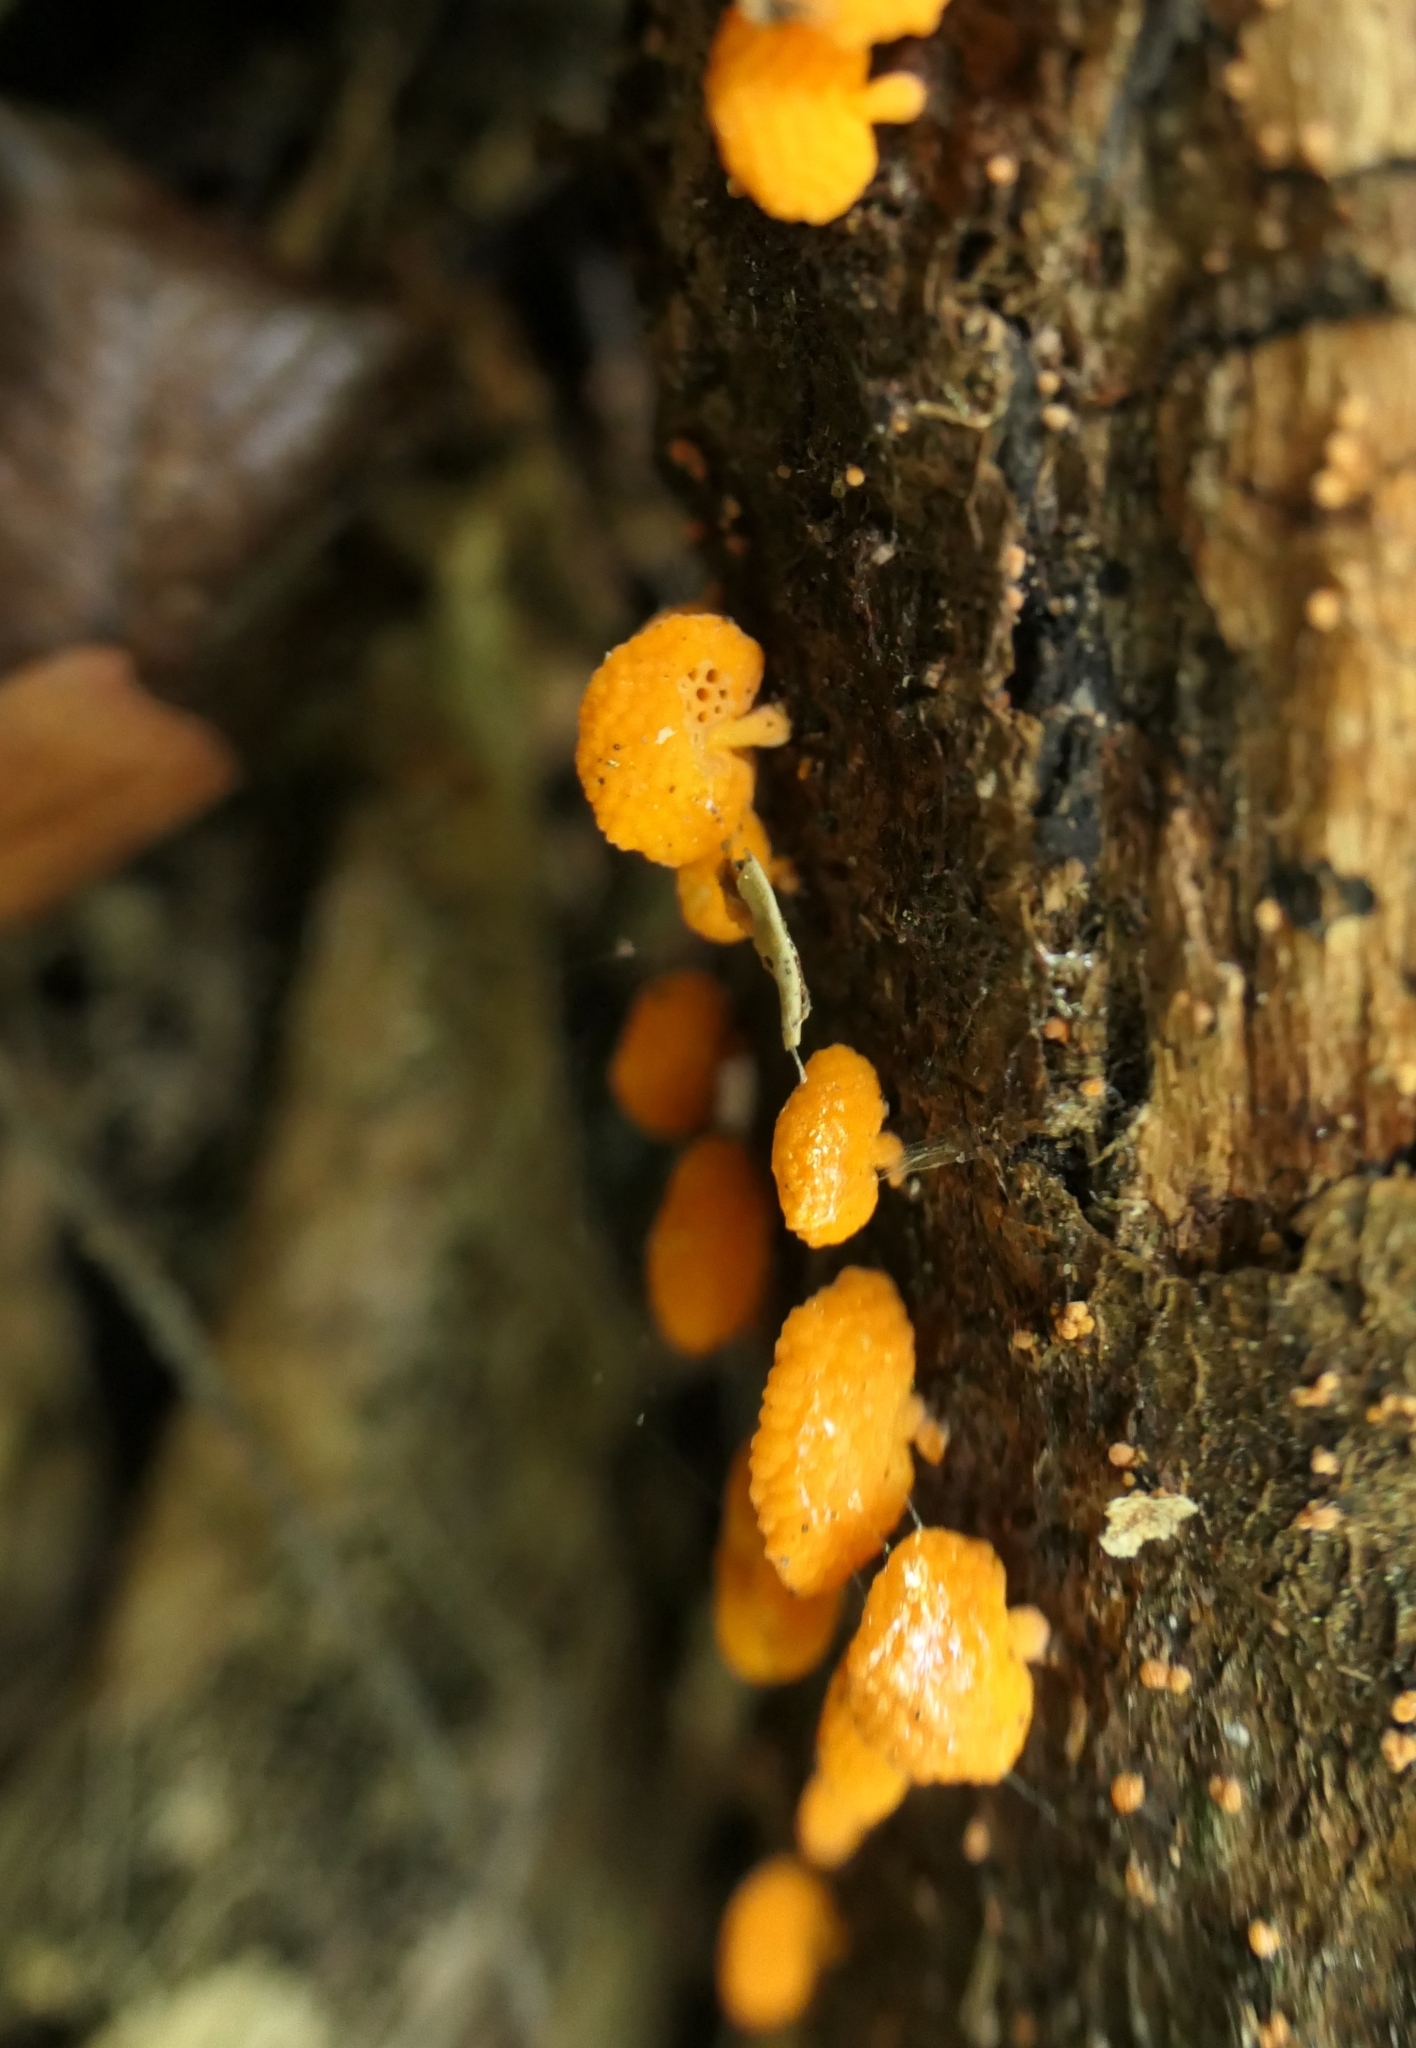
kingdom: Fungi
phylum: Basidiomycota
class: Agaricomycetes
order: Agaricales
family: Mycenaceae
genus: Favolaschia
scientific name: Favolaschia claudopus
